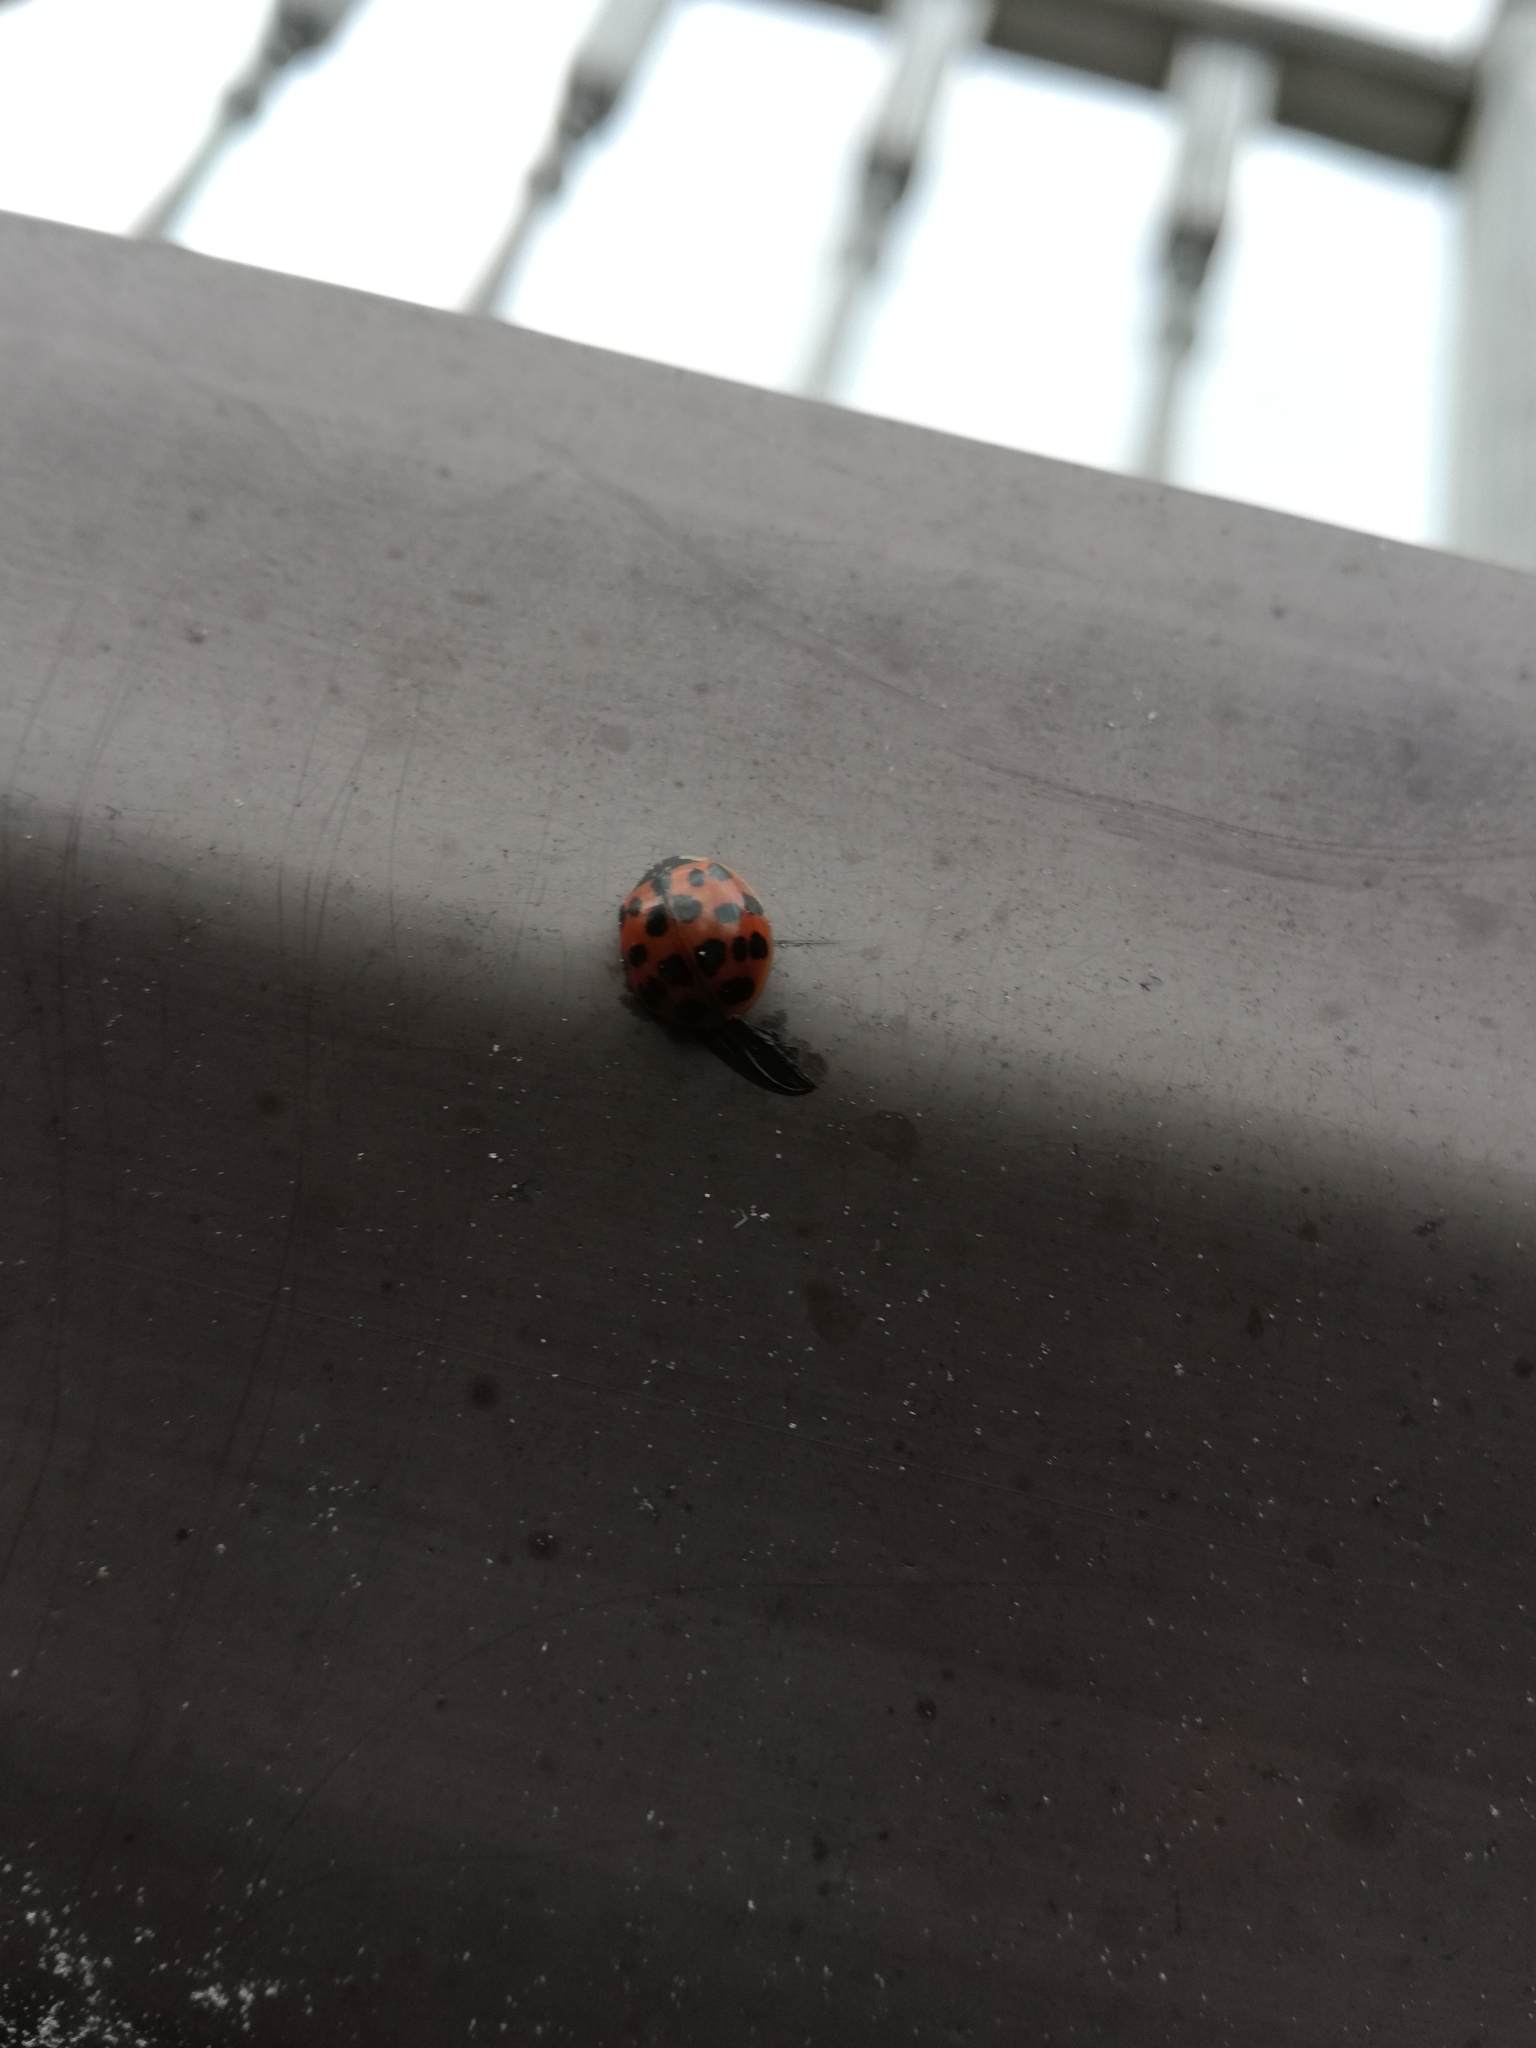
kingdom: Animalia
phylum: Arthropoda
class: Insecta
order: Coleoptera
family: Coccinellidae
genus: Harmonia
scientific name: Harmonia axyridis
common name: Harlequin ladybird
